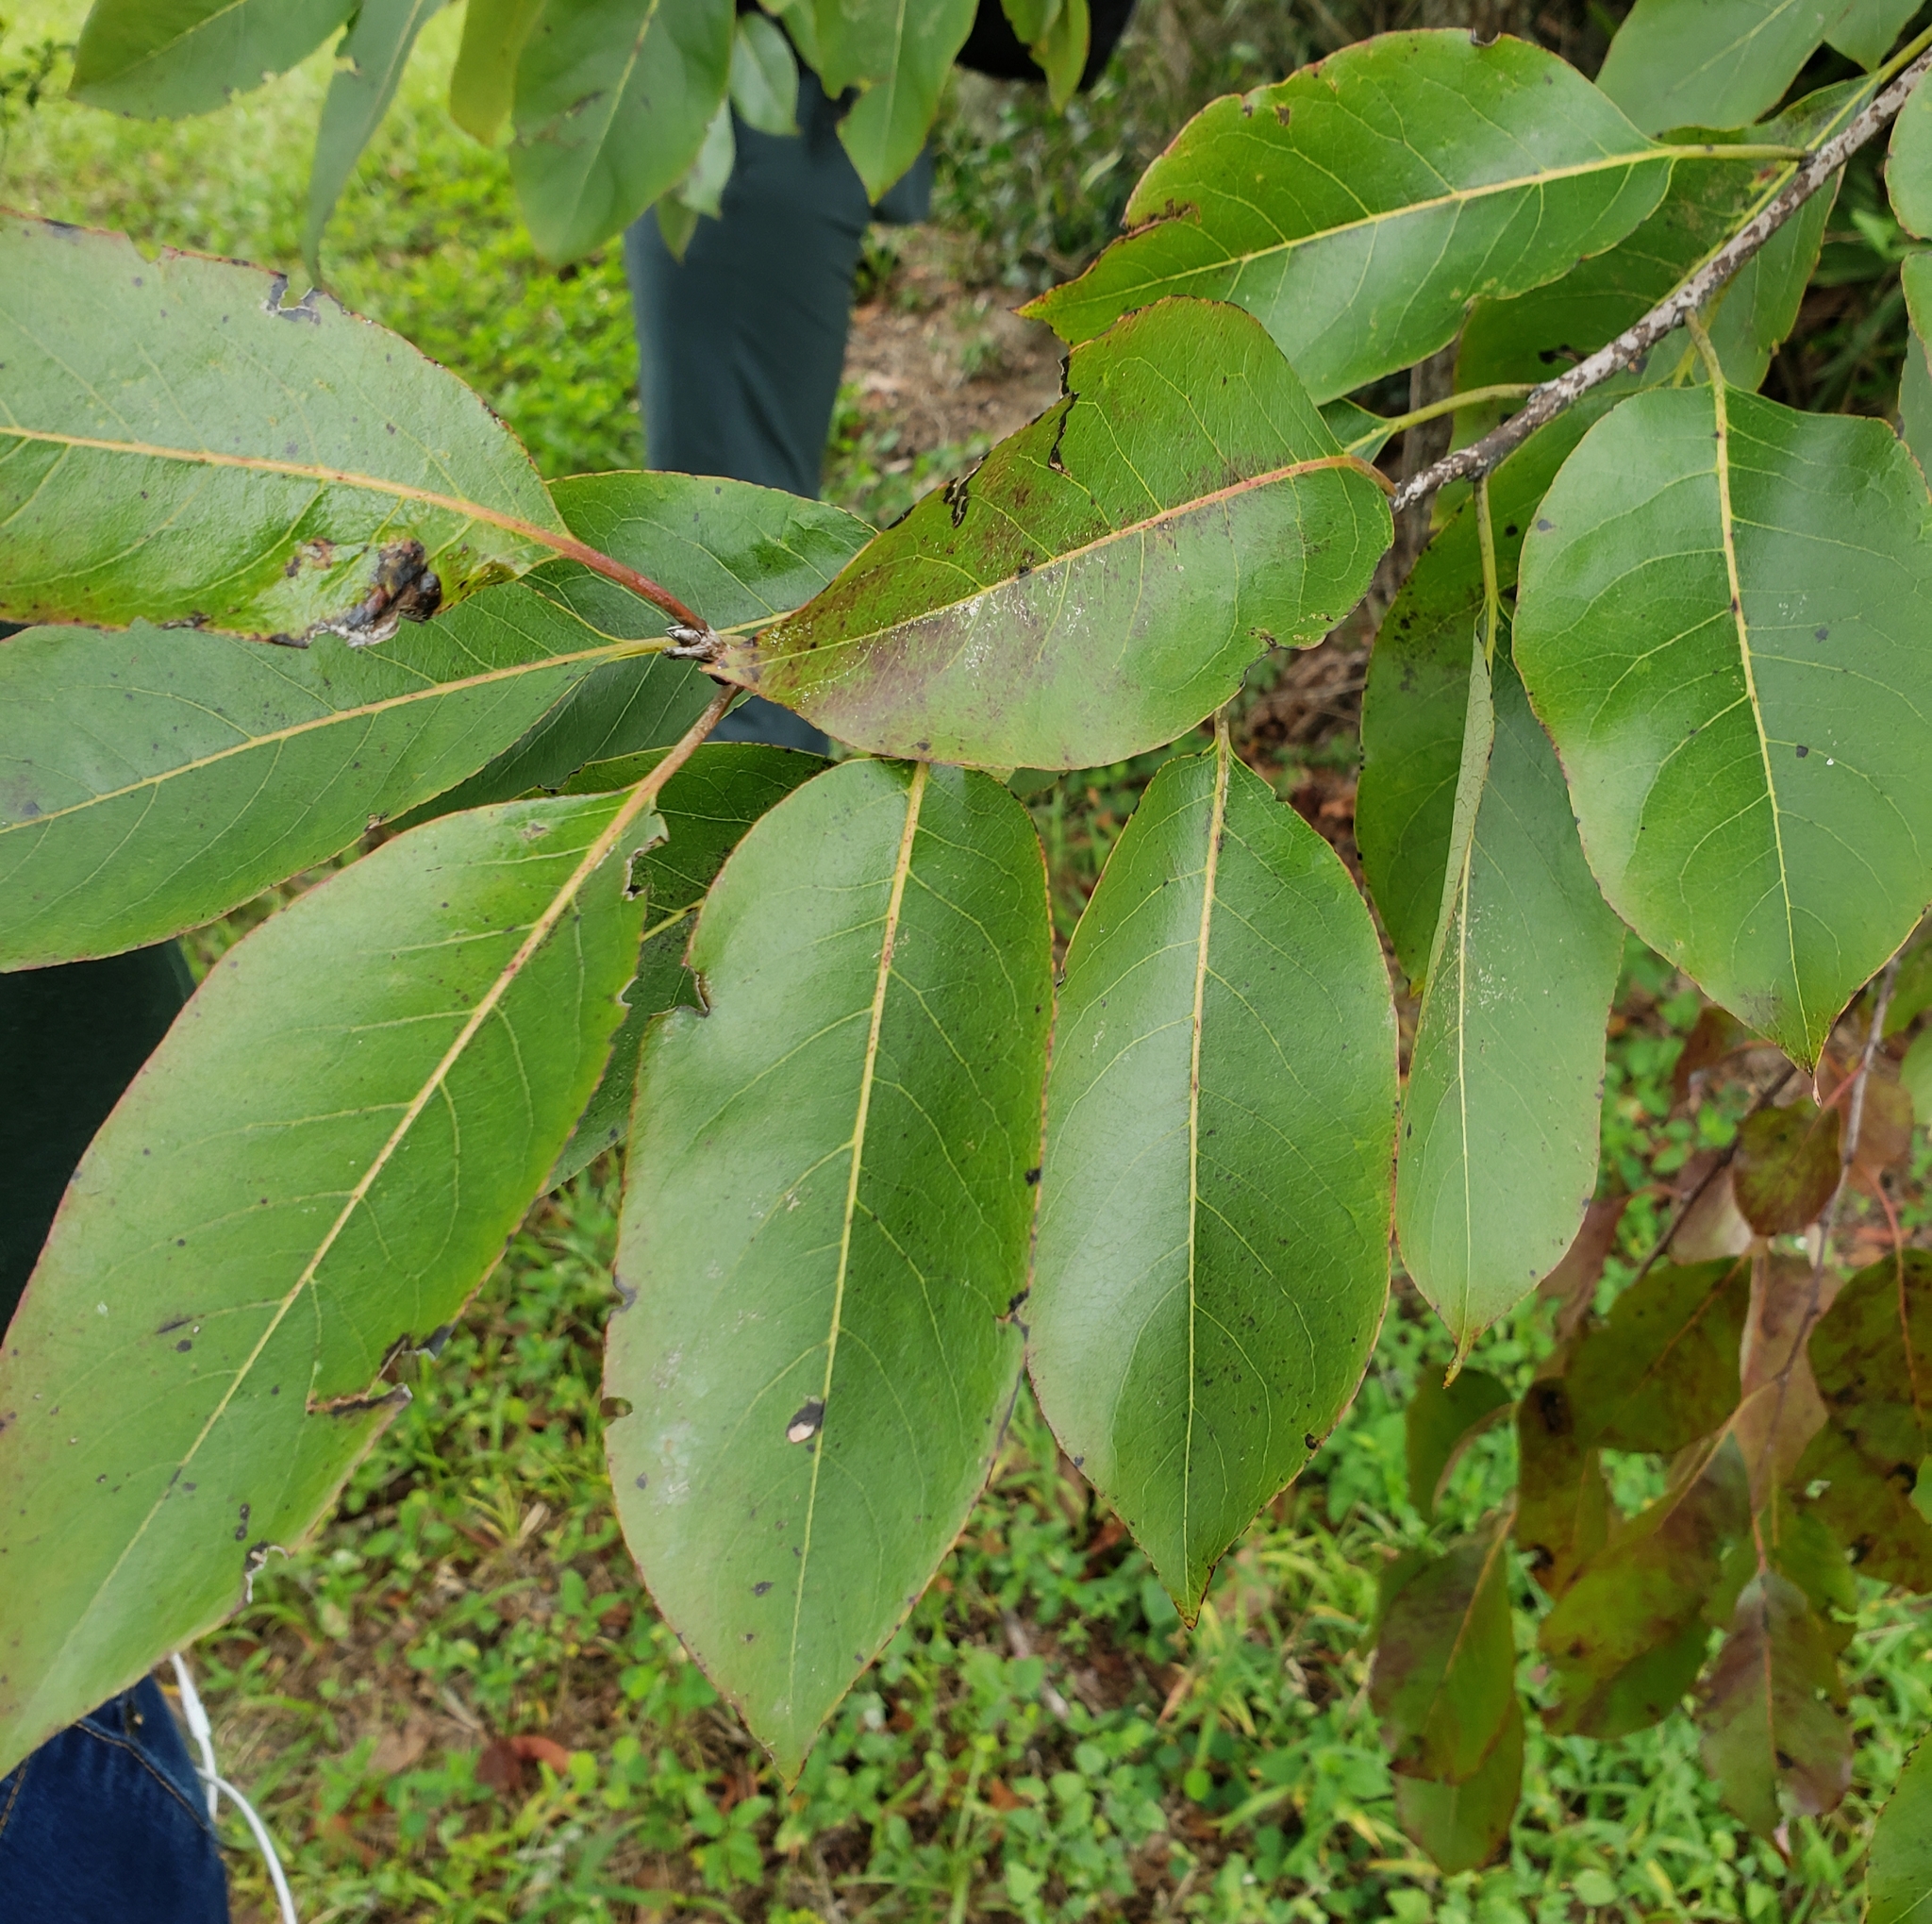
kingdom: Plantae
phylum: Tracheophyta
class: Magnoliopsida
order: Ericales
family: Ebenaceae
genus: Diospyros
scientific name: Diospyros virginiana
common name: Persimmon
